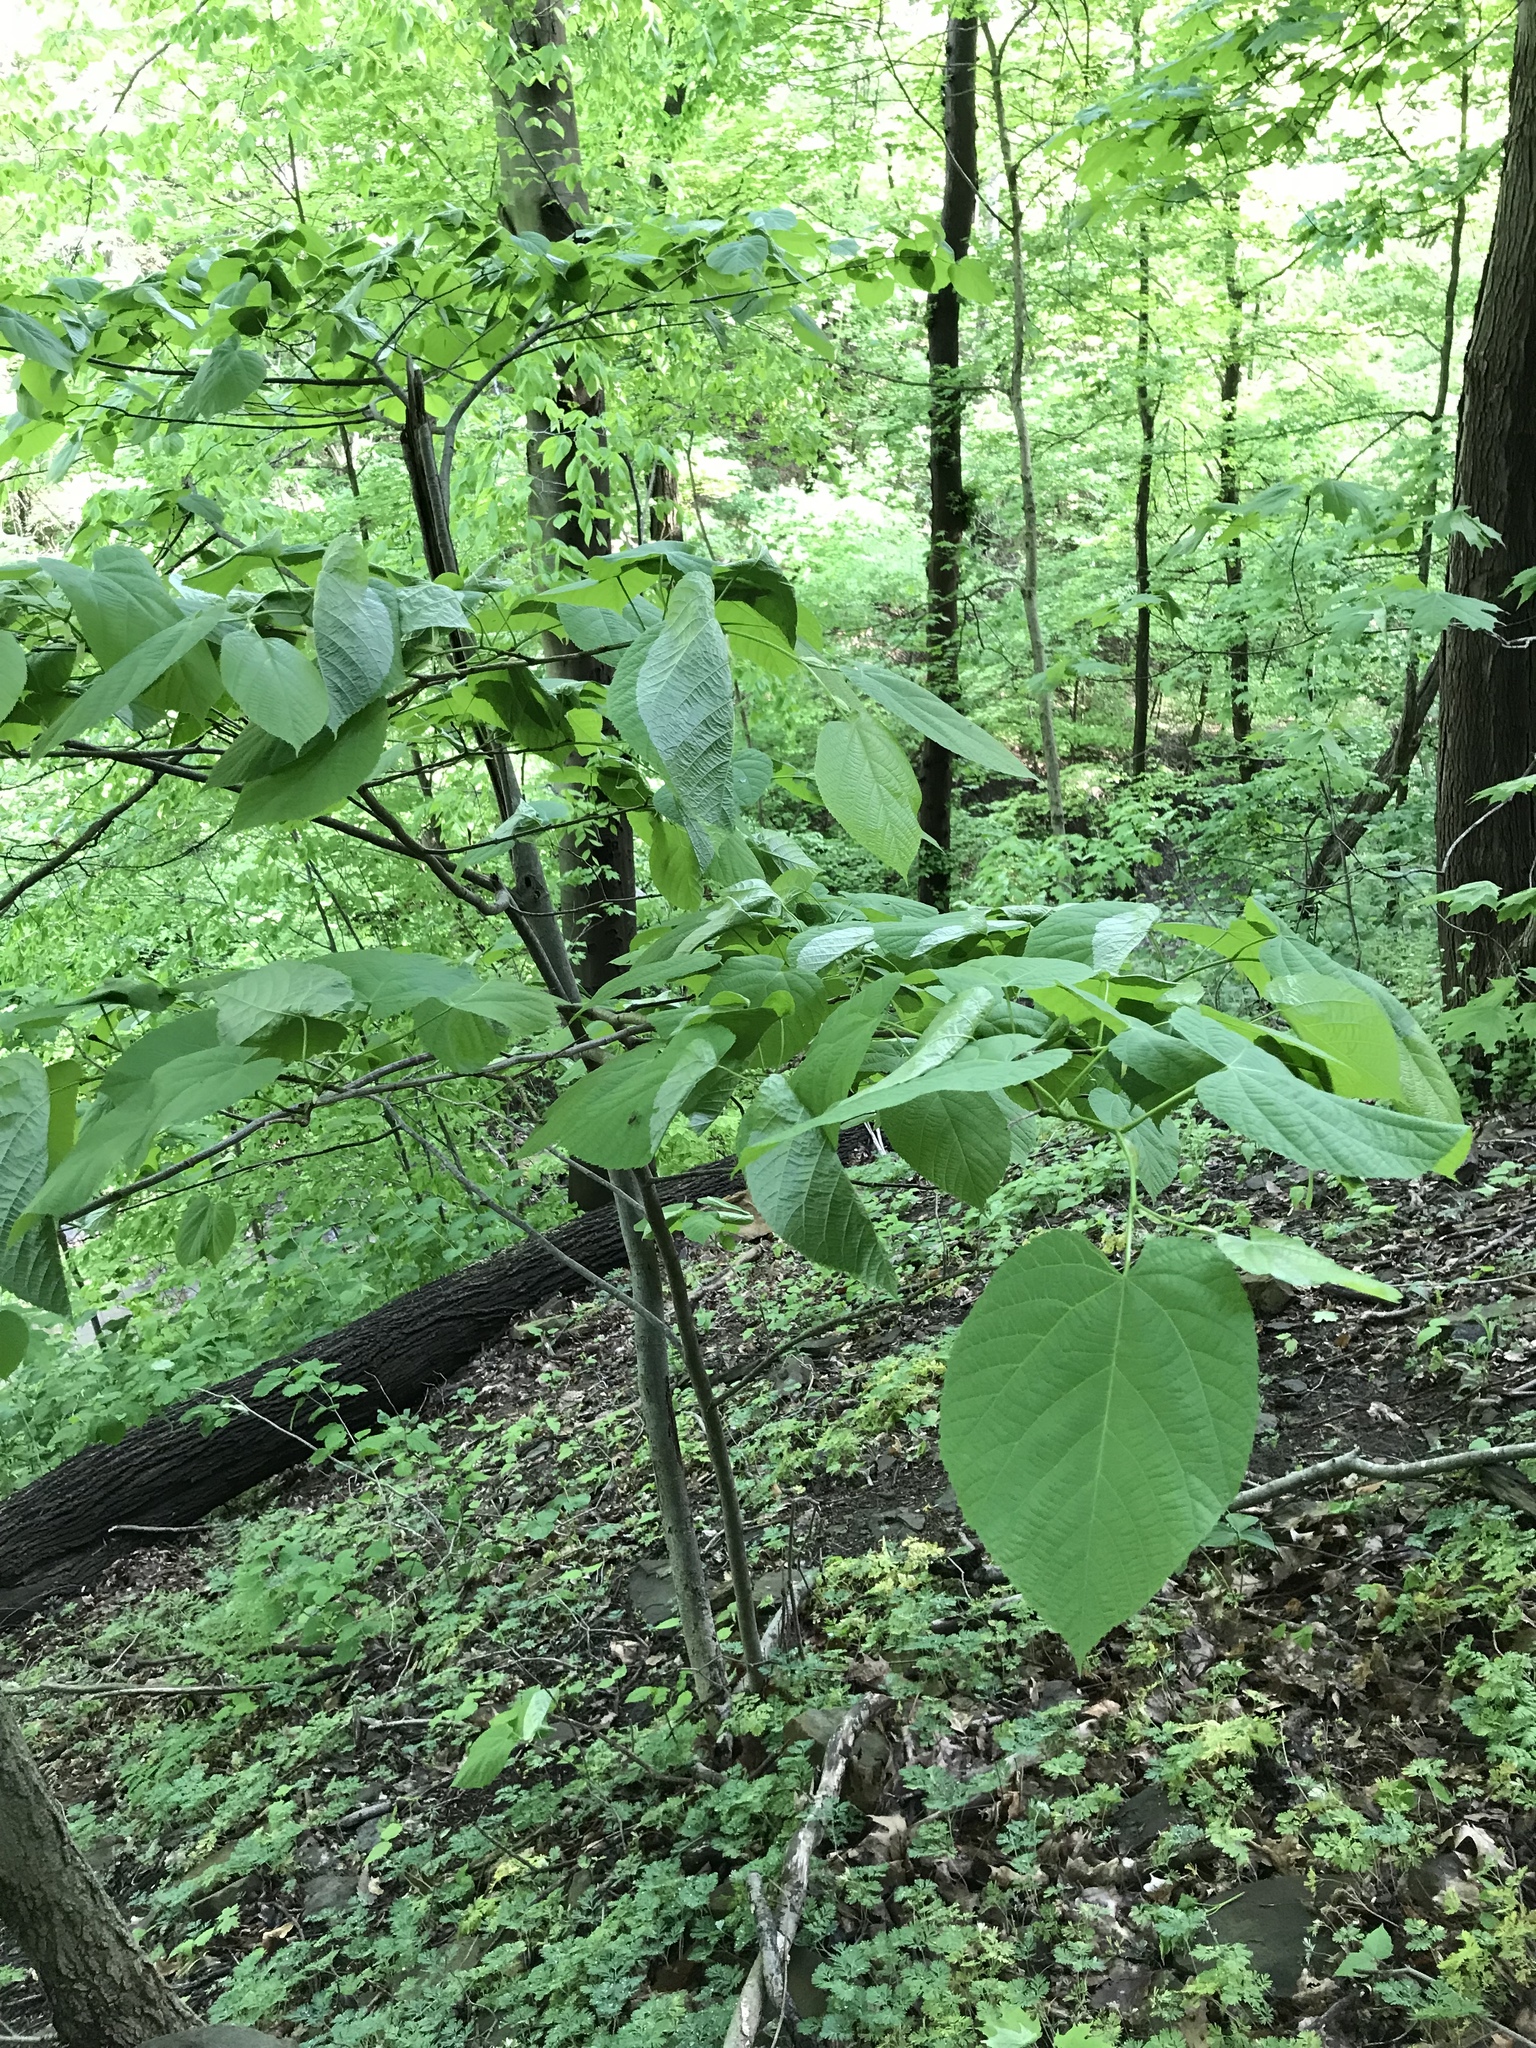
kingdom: Plantae
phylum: Tracheophyta
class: Magnoliopsida
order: Malvales
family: Malvaceae
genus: Tilia
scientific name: Tilia americana
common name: Basswood
